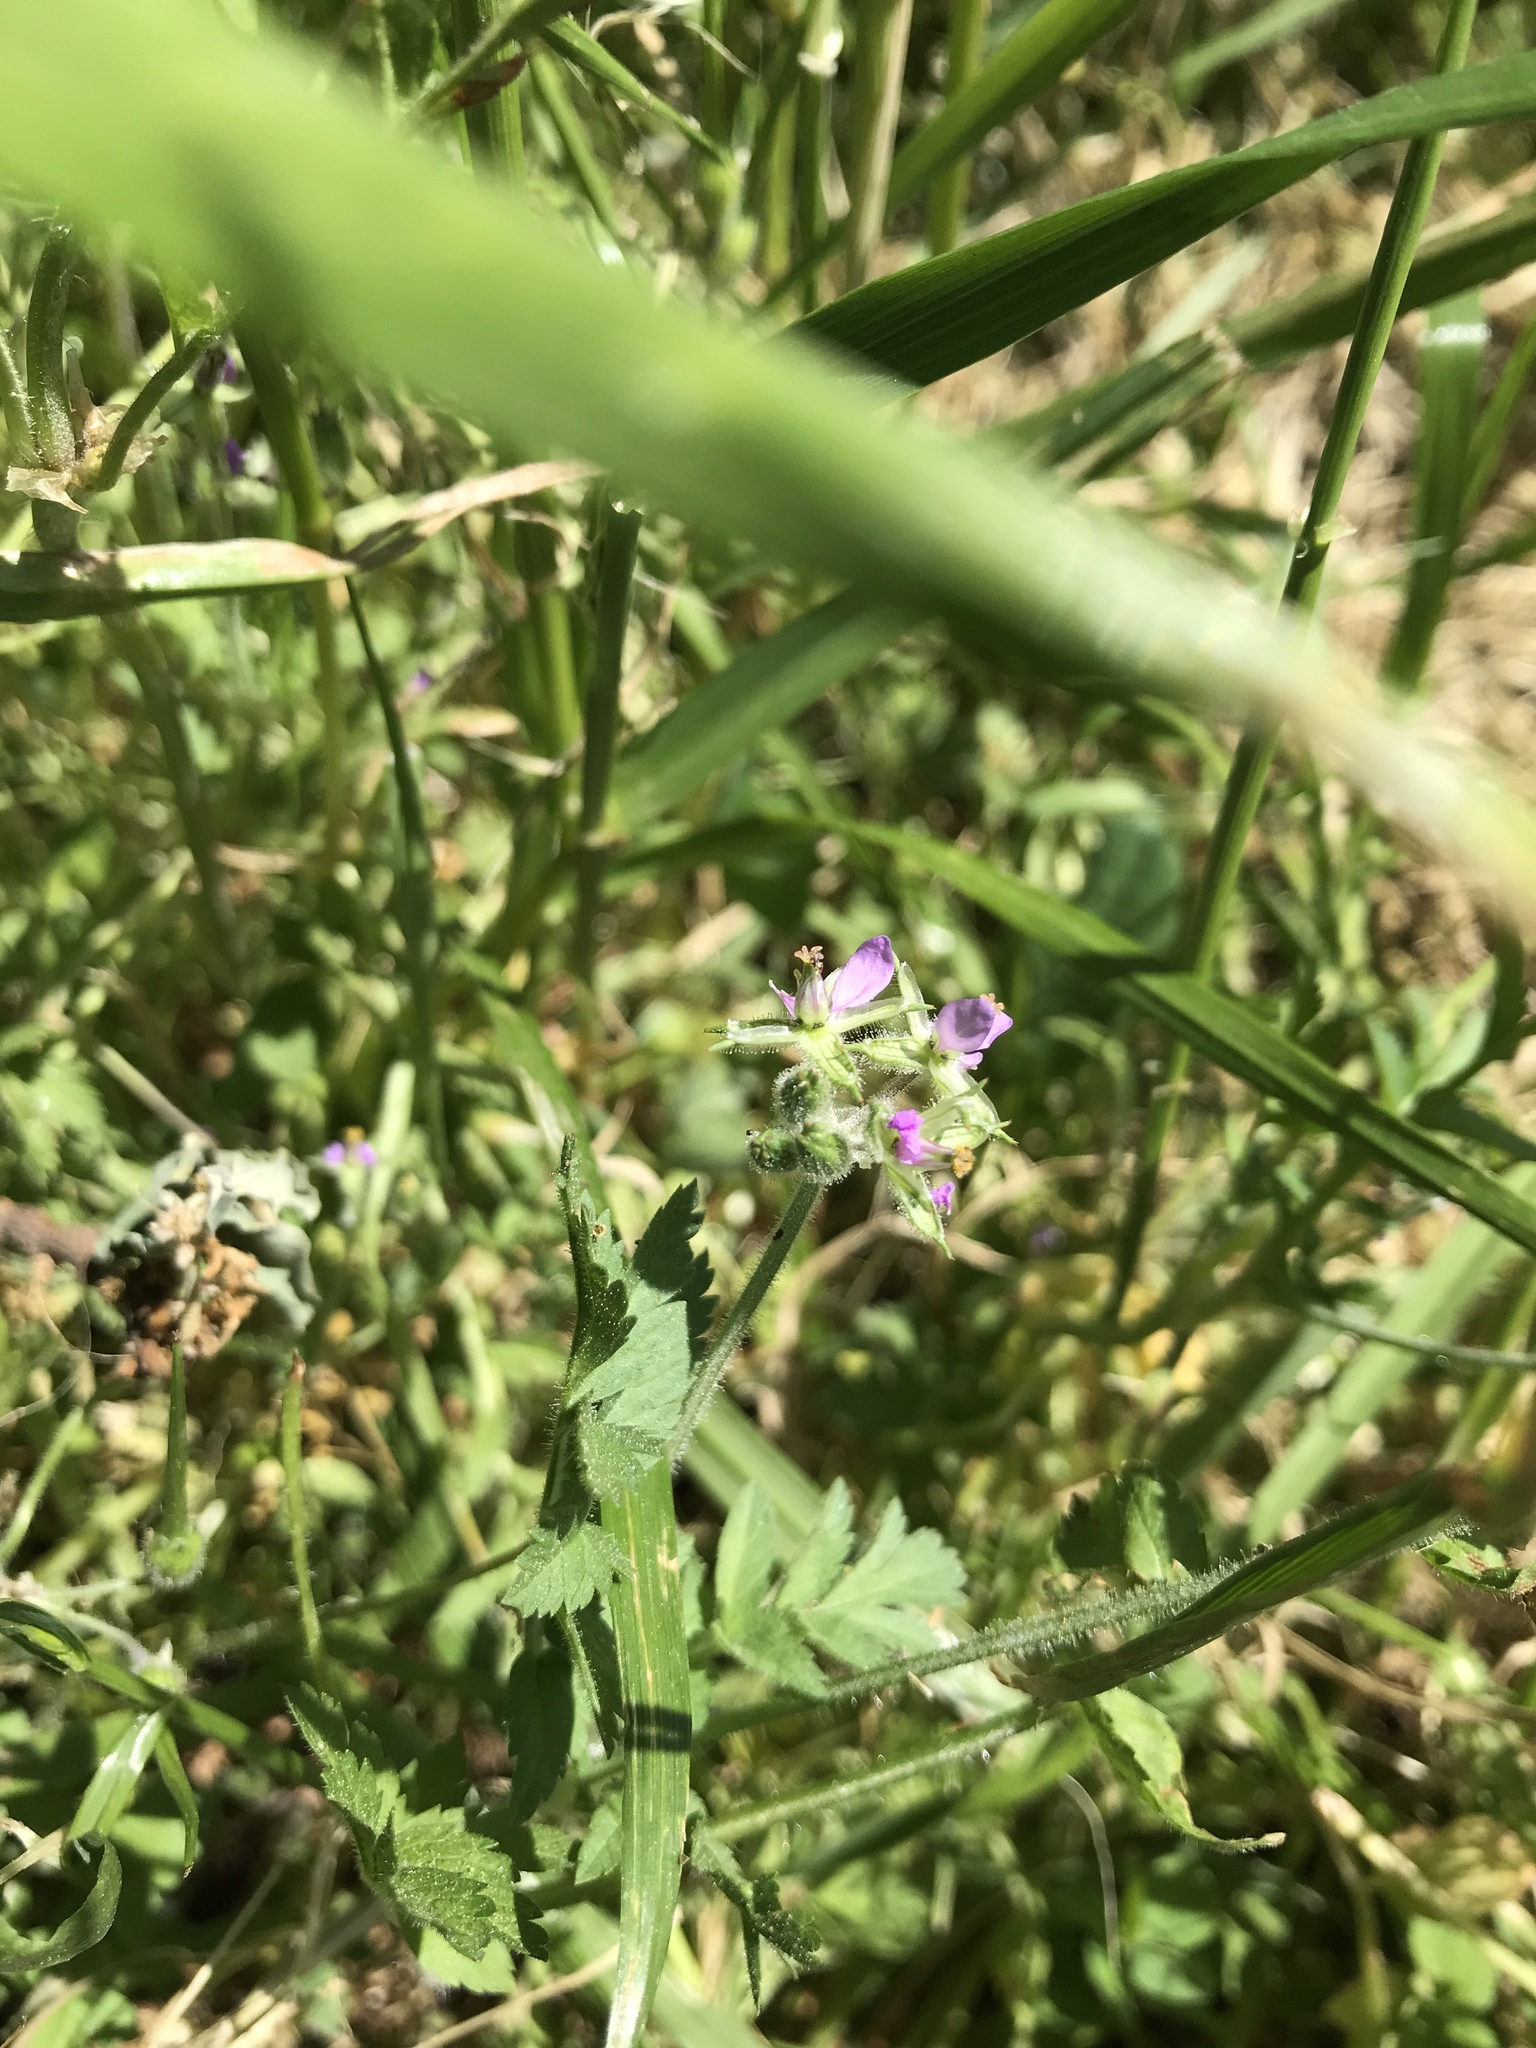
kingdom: Plantae
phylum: Tracheophyta
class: Magnoliopsida
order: Geraniales
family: Geraniaceae
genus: Erodium
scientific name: Erodium moschatum
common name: Musk stork's-bill
